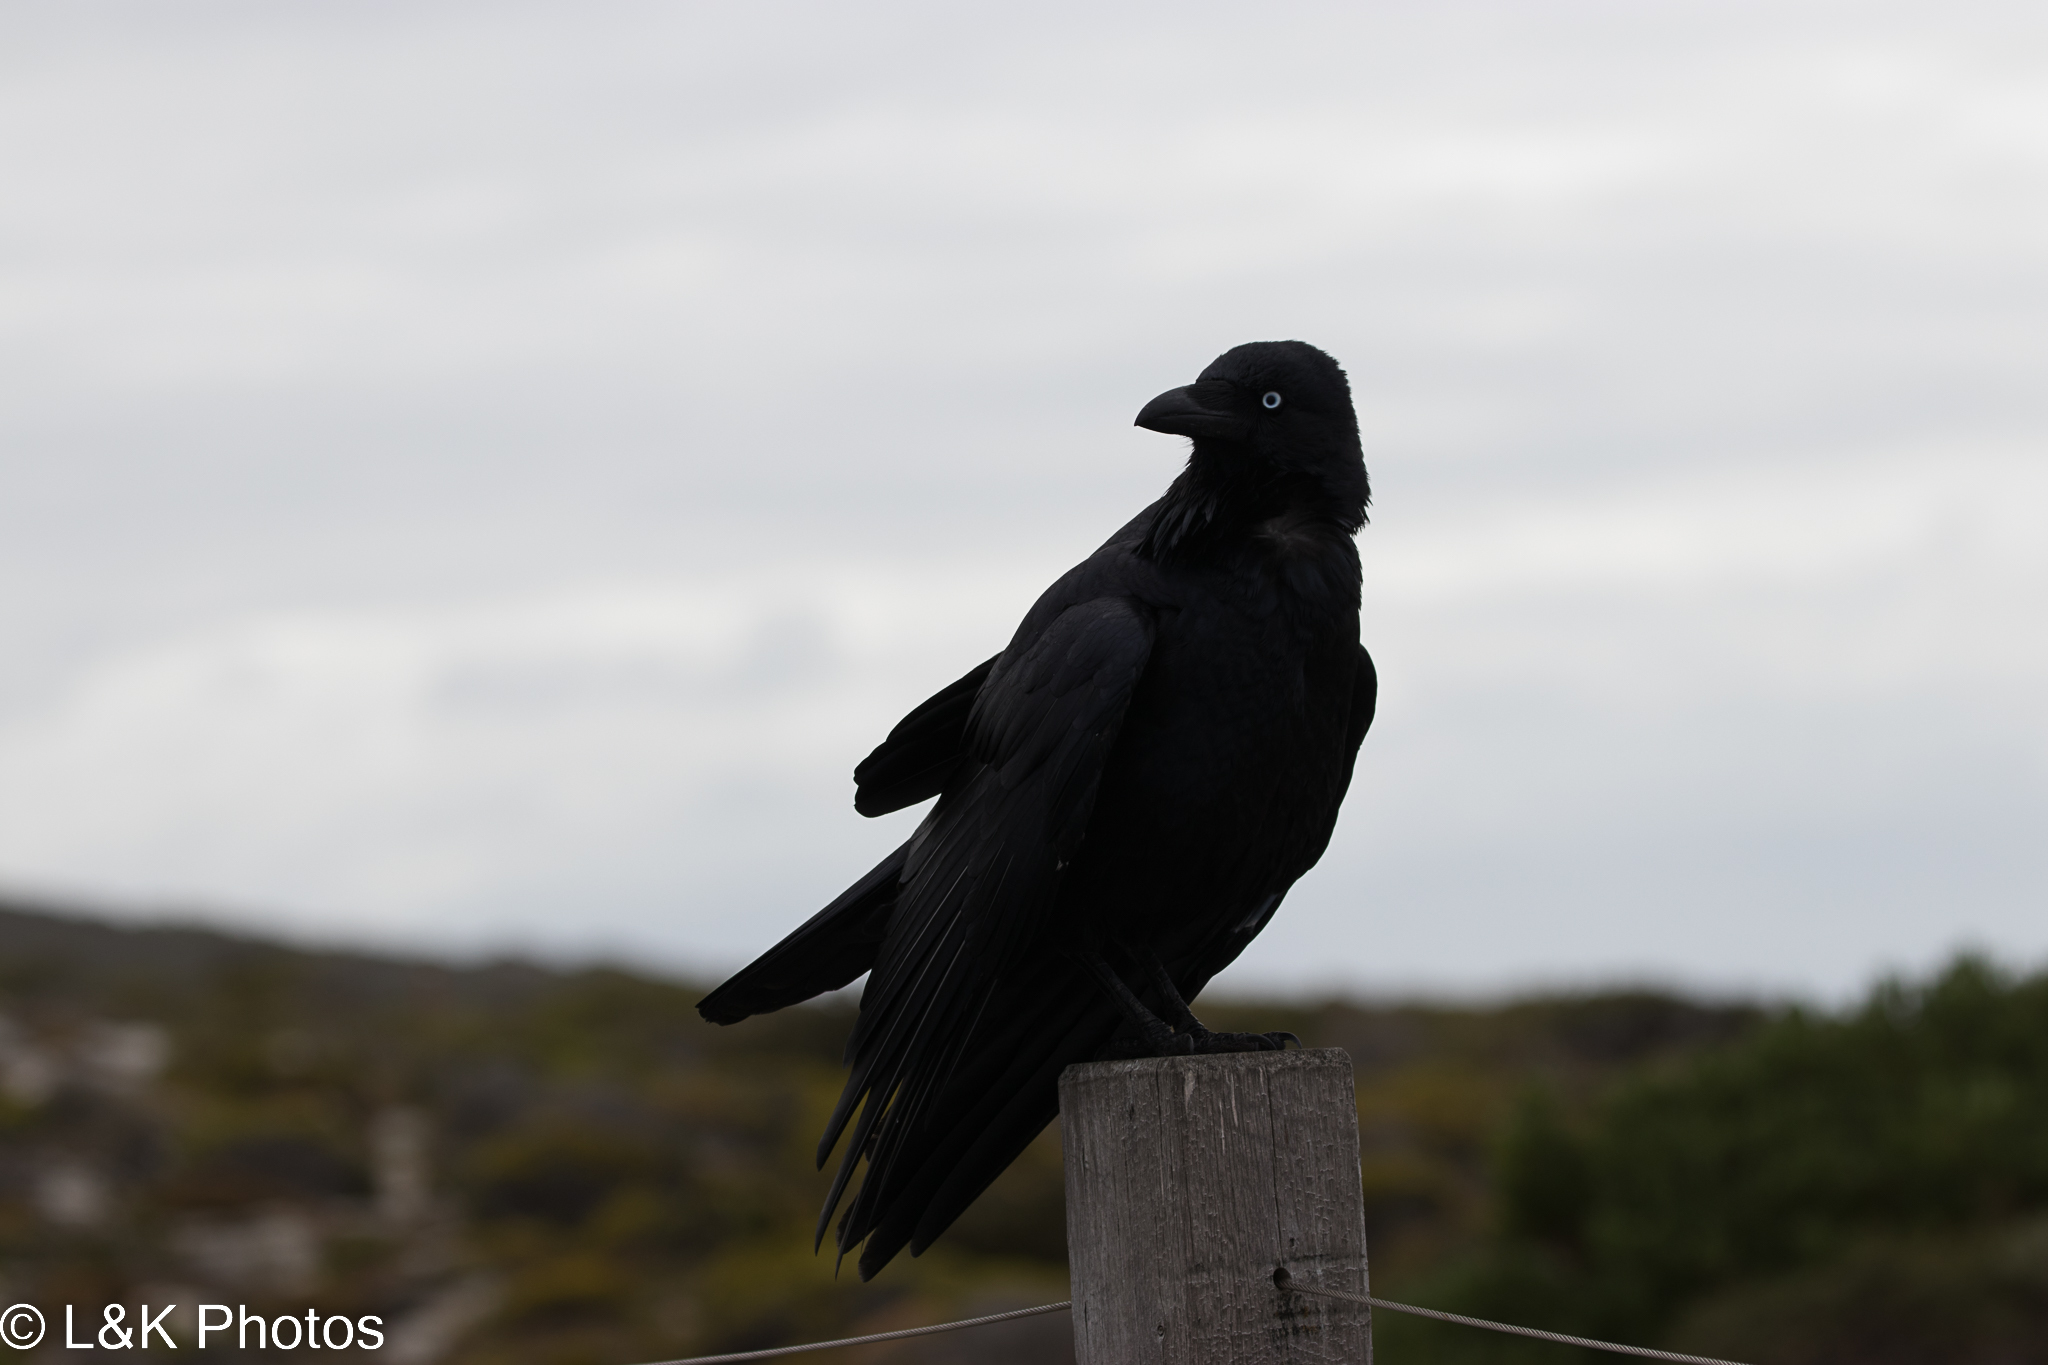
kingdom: Animalia
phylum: Chordata
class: Aves
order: Passeriformes
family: Corvidae
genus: Corvus
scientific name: Corvus coronoides
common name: Australian raven
